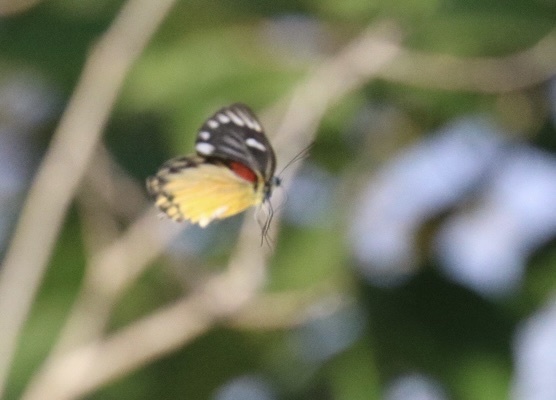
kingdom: Animalia
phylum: Arthropoda
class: Insecta
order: Lepidoptera
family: Pieridae
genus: Delias
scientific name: Delias descombesi
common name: Red-spot jezebel
